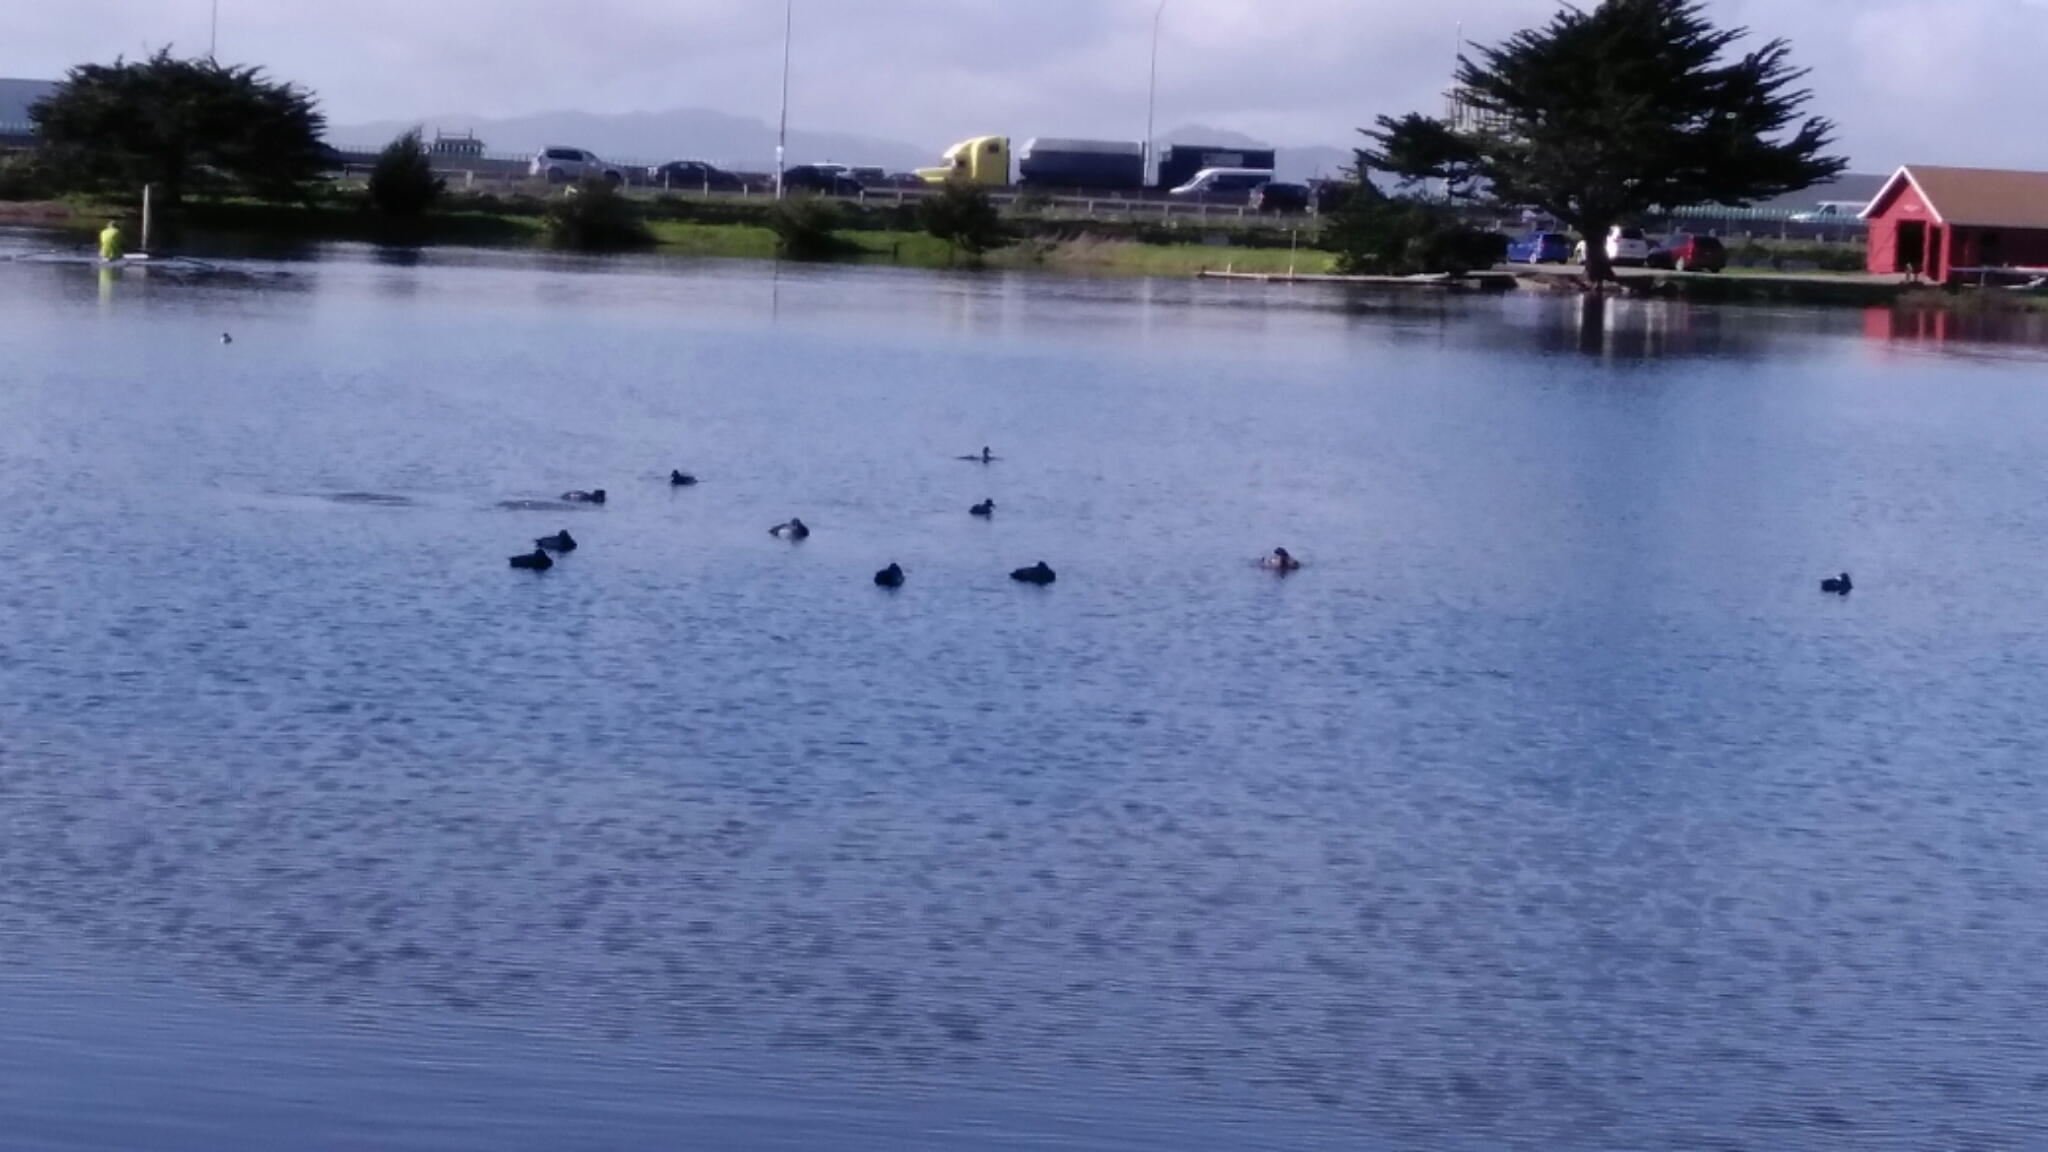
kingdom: Animalia
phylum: Chordata
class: Aves
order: Anseriformes
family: Anatidae
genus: Aythya
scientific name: Aythya marila
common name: Greater scaup
